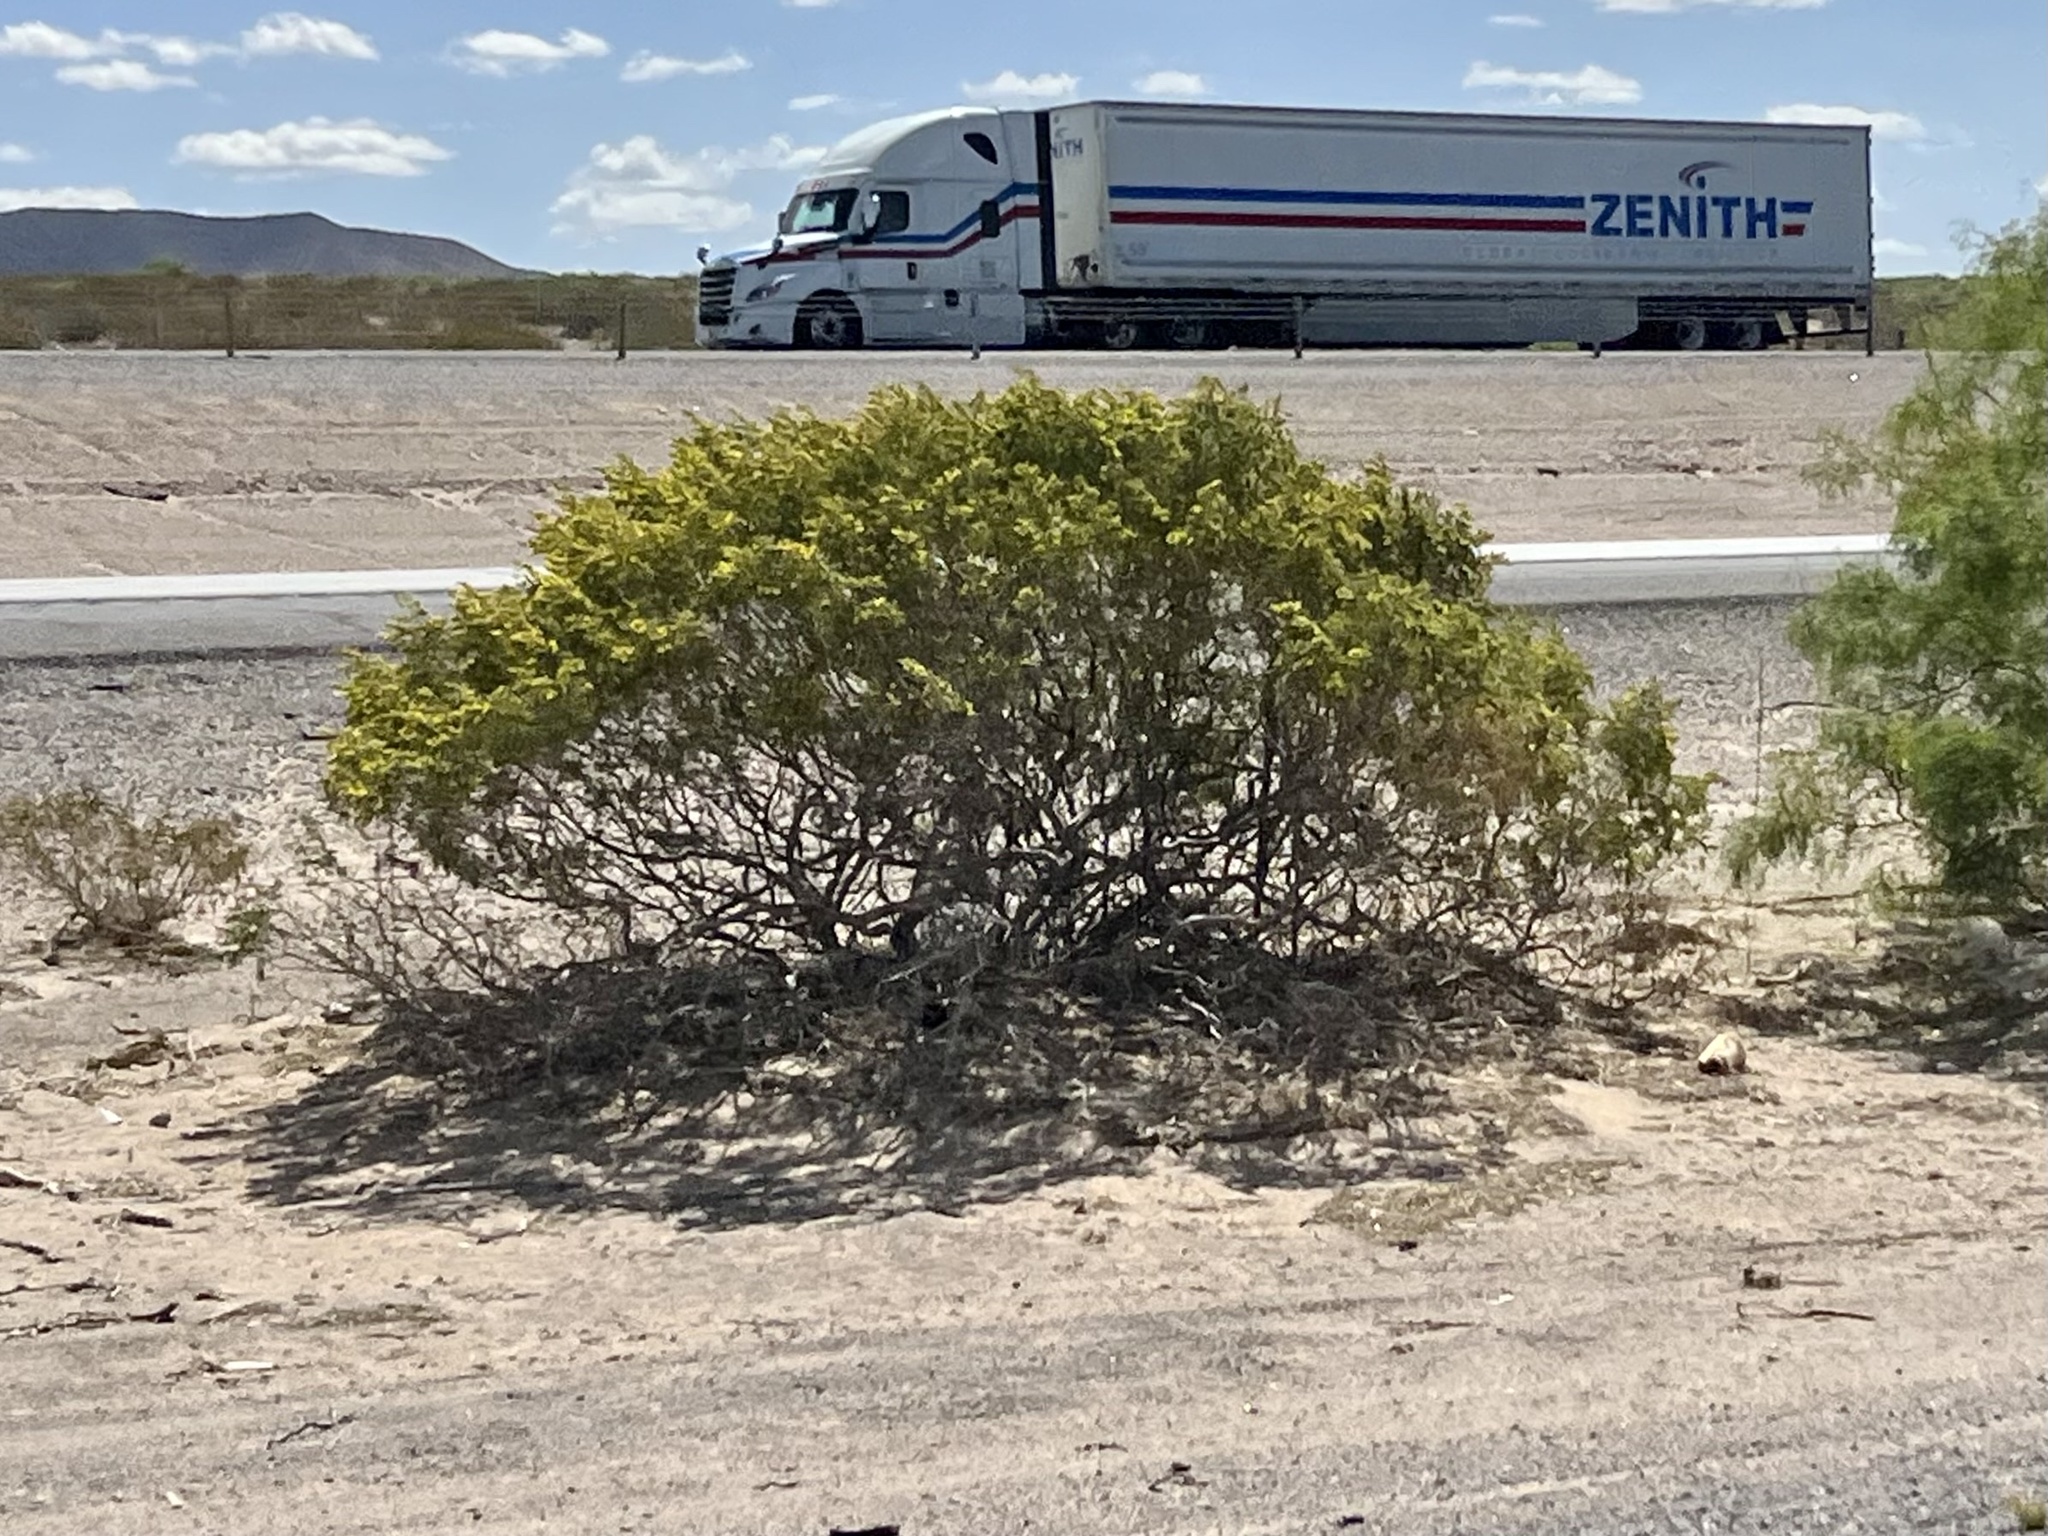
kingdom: Plantae
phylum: Tracheophyta
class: Magnoliopsida
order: Zygophyllales
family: Zygophyllaceae
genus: Larrea
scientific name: Larrea tridentata
